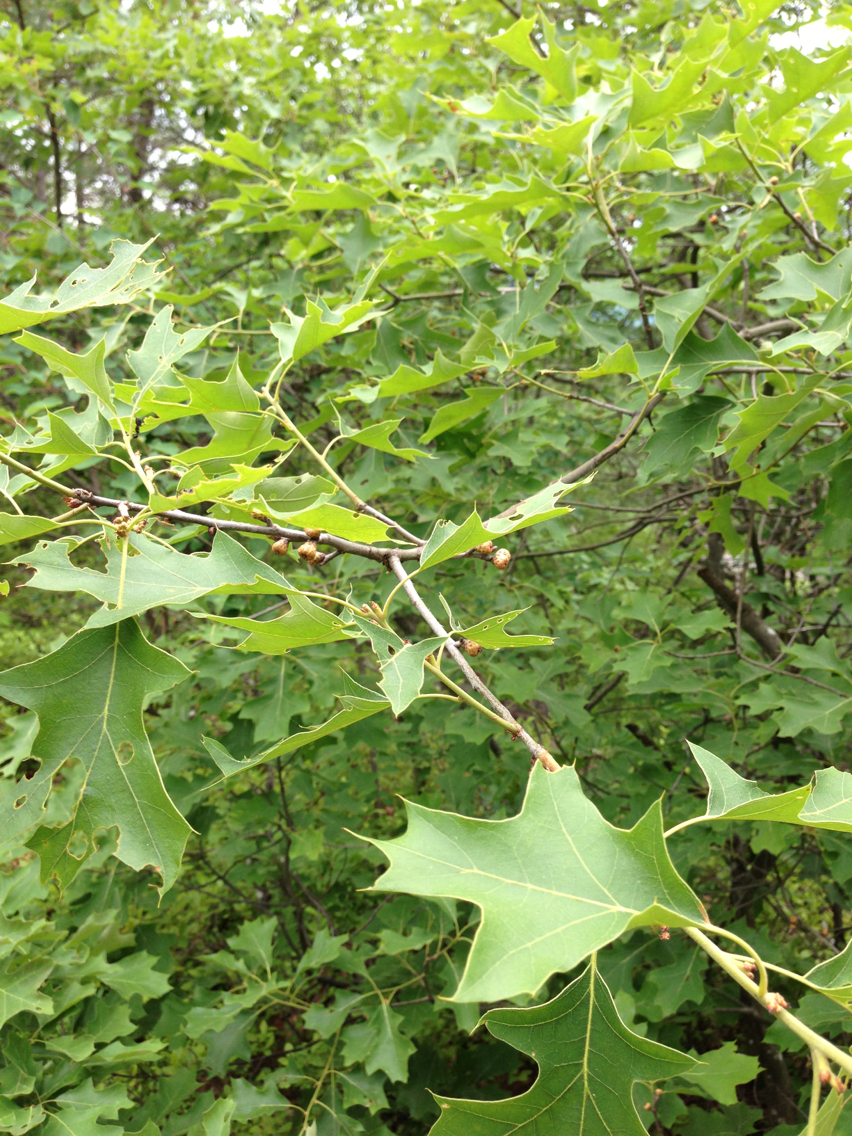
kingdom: Plantae
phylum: Tracheophyta
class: Magnoliopsida
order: Fagales
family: Fagaceae
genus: Quercus
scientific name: Quercus ilicifolia
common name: Bear oak
